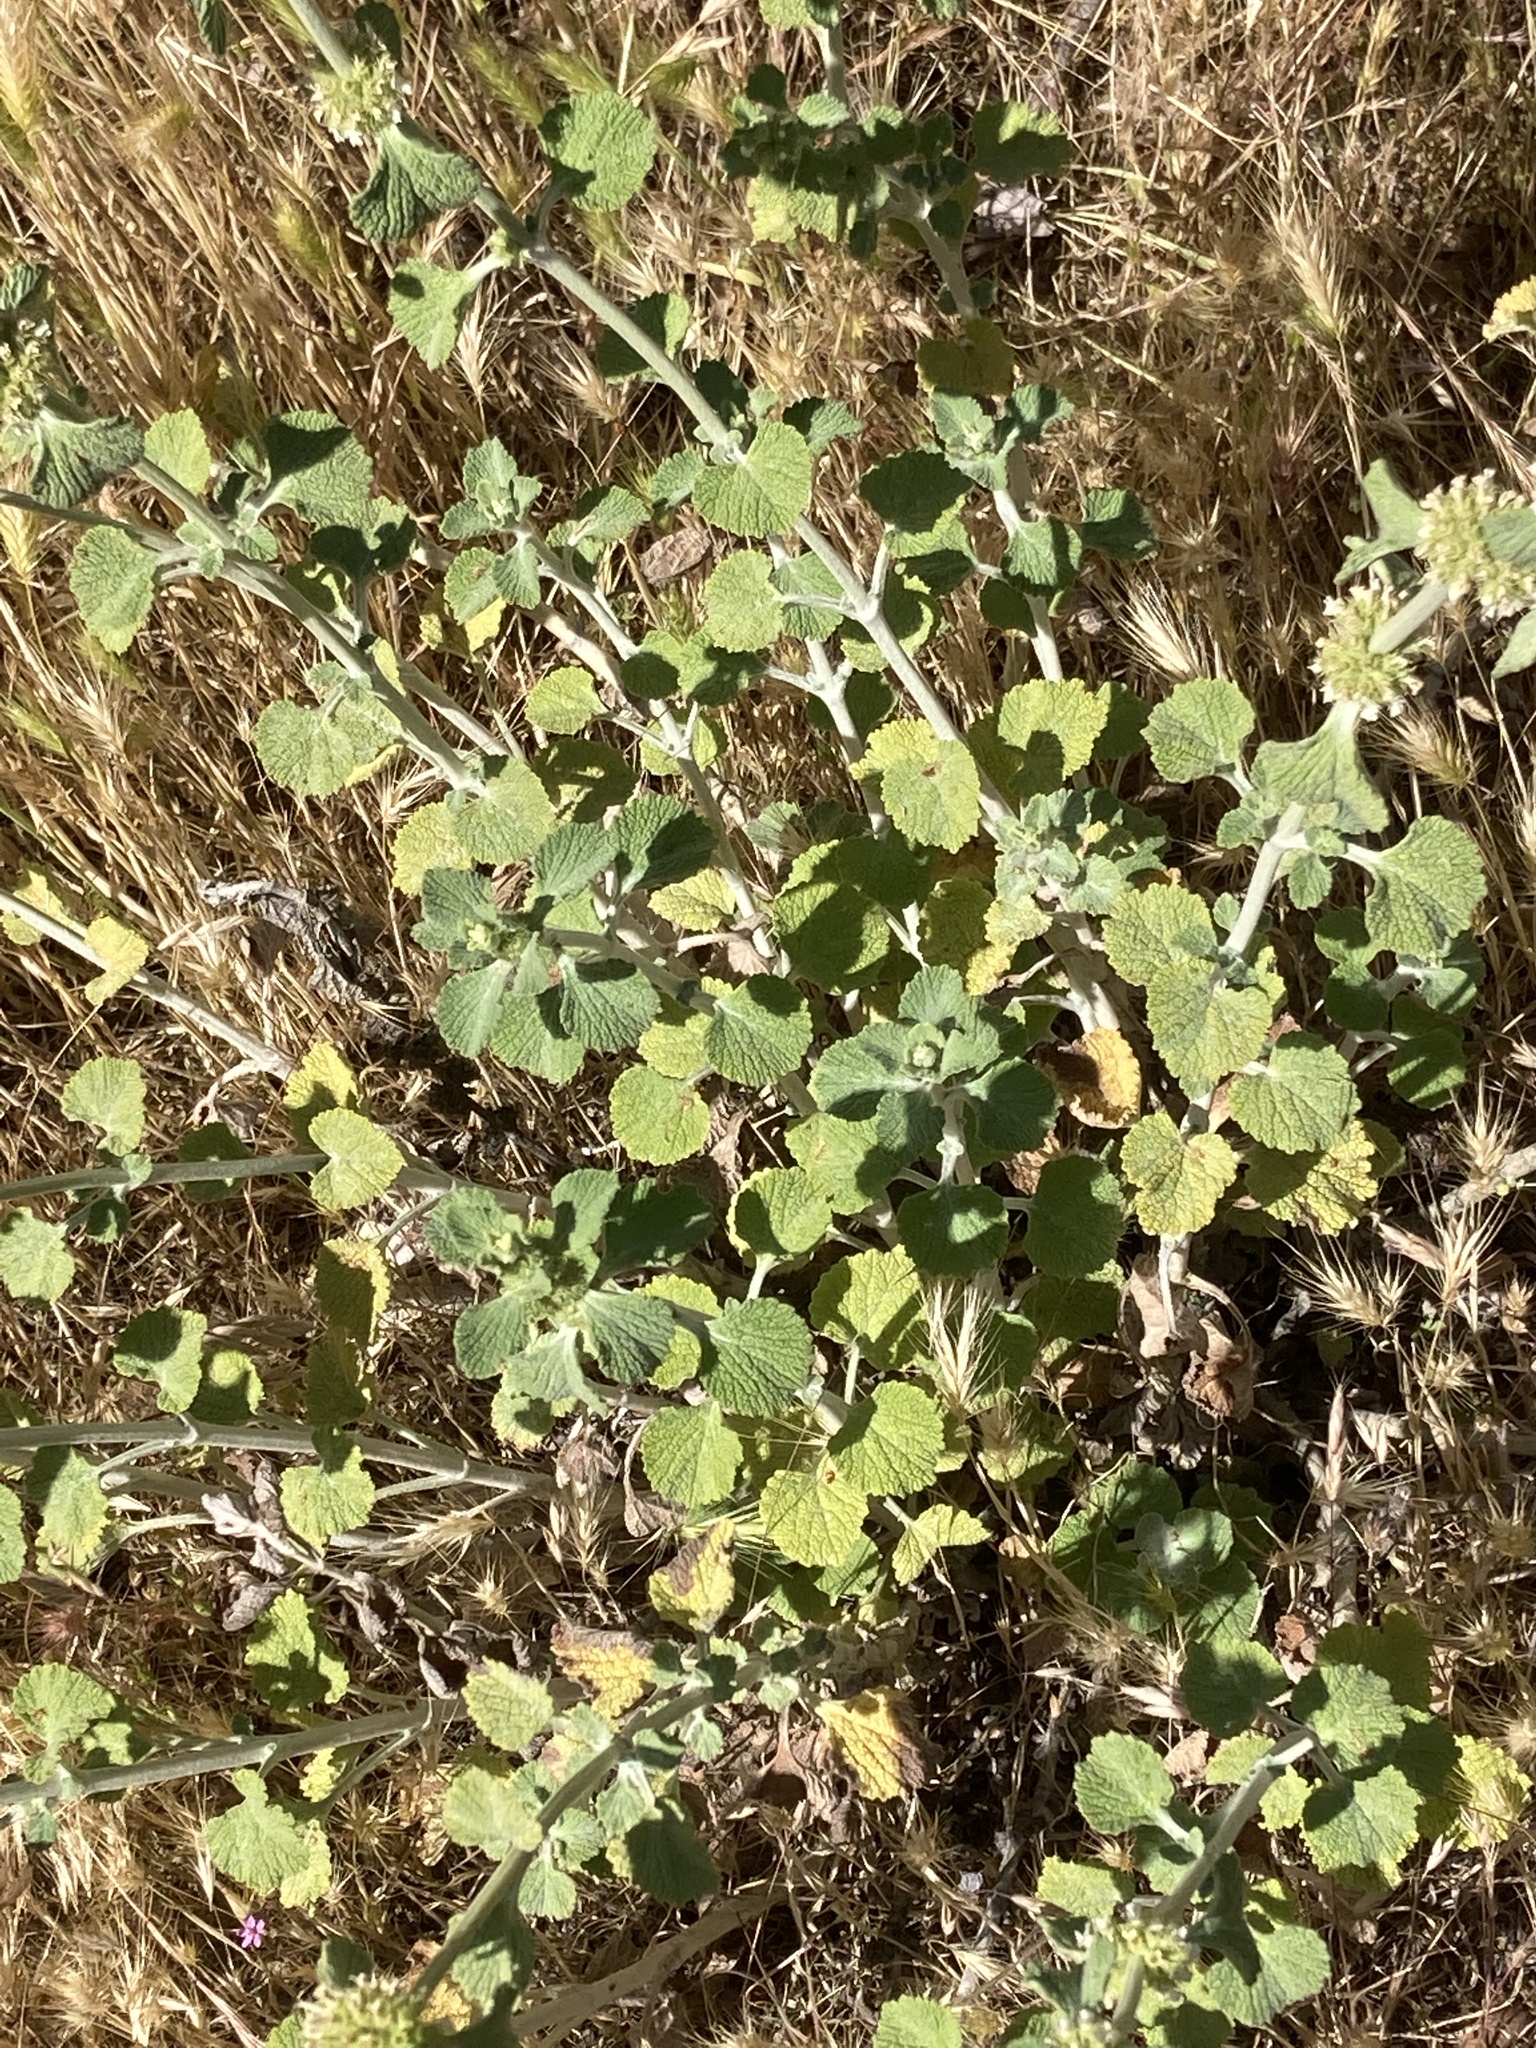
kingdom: Plantae
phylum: Tracheophyta
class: Magnoliopsida
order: Lamiales
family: Lamiaceae
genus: Marrubium
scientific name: Marrubium vulgare
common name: Horehound
